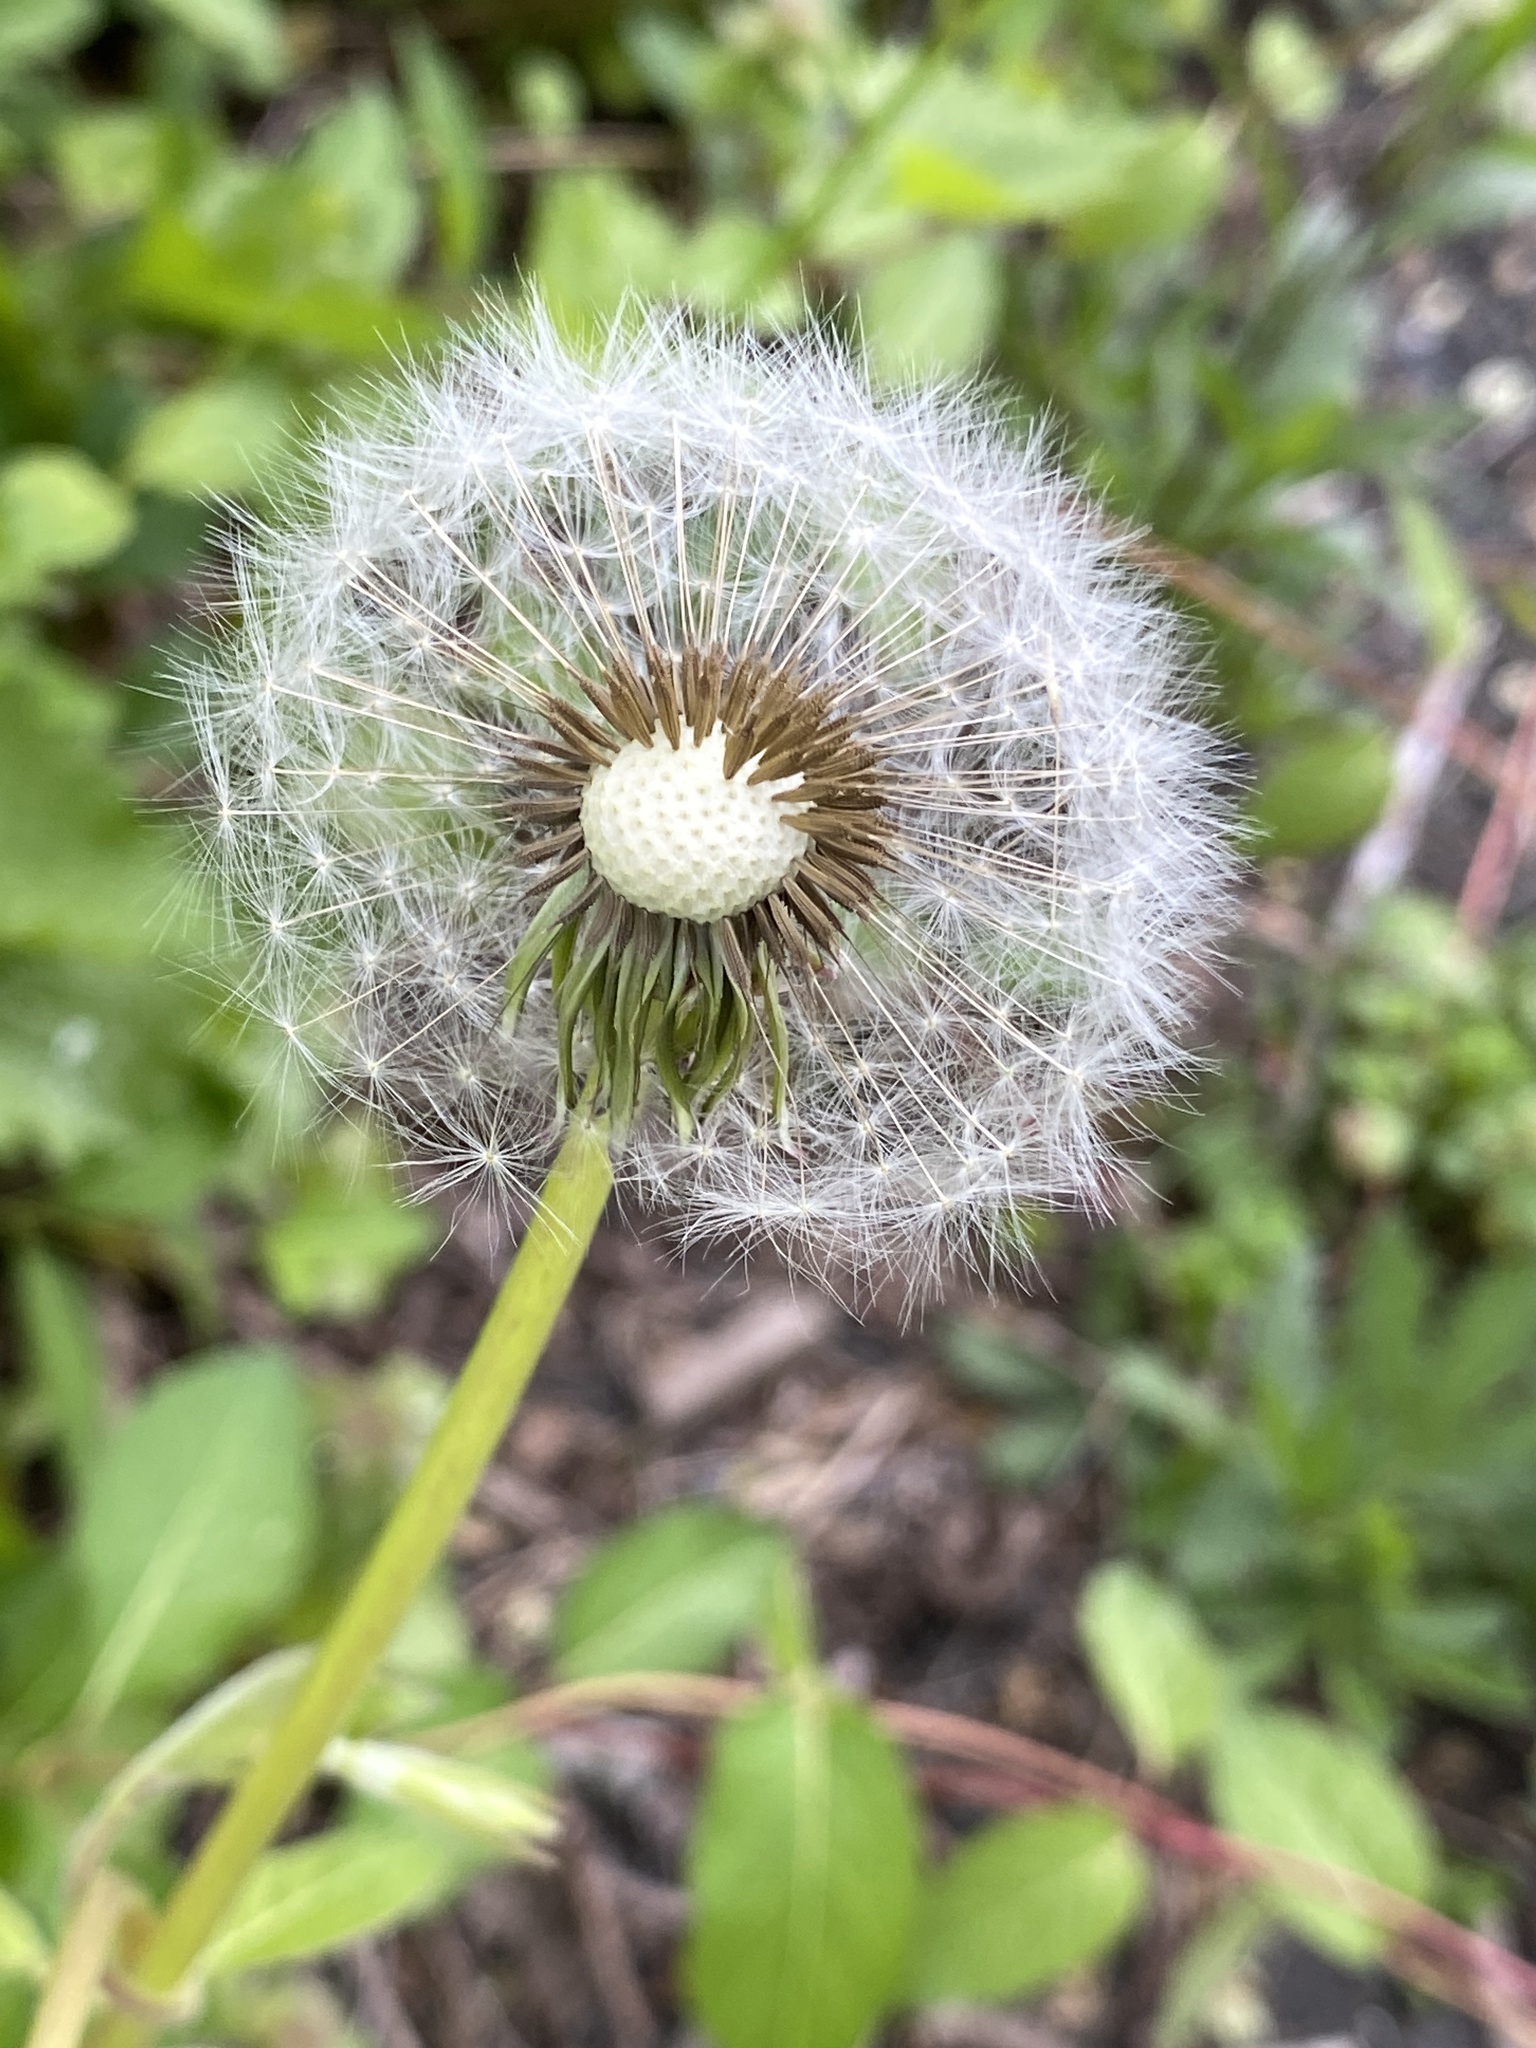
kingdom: Plantae
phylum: Tracheophyta
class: Magnoliopsida
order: Asterales
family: Asteraceae
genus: Taraxacum
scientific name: Taraxacum officinale
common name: Common dandelion
